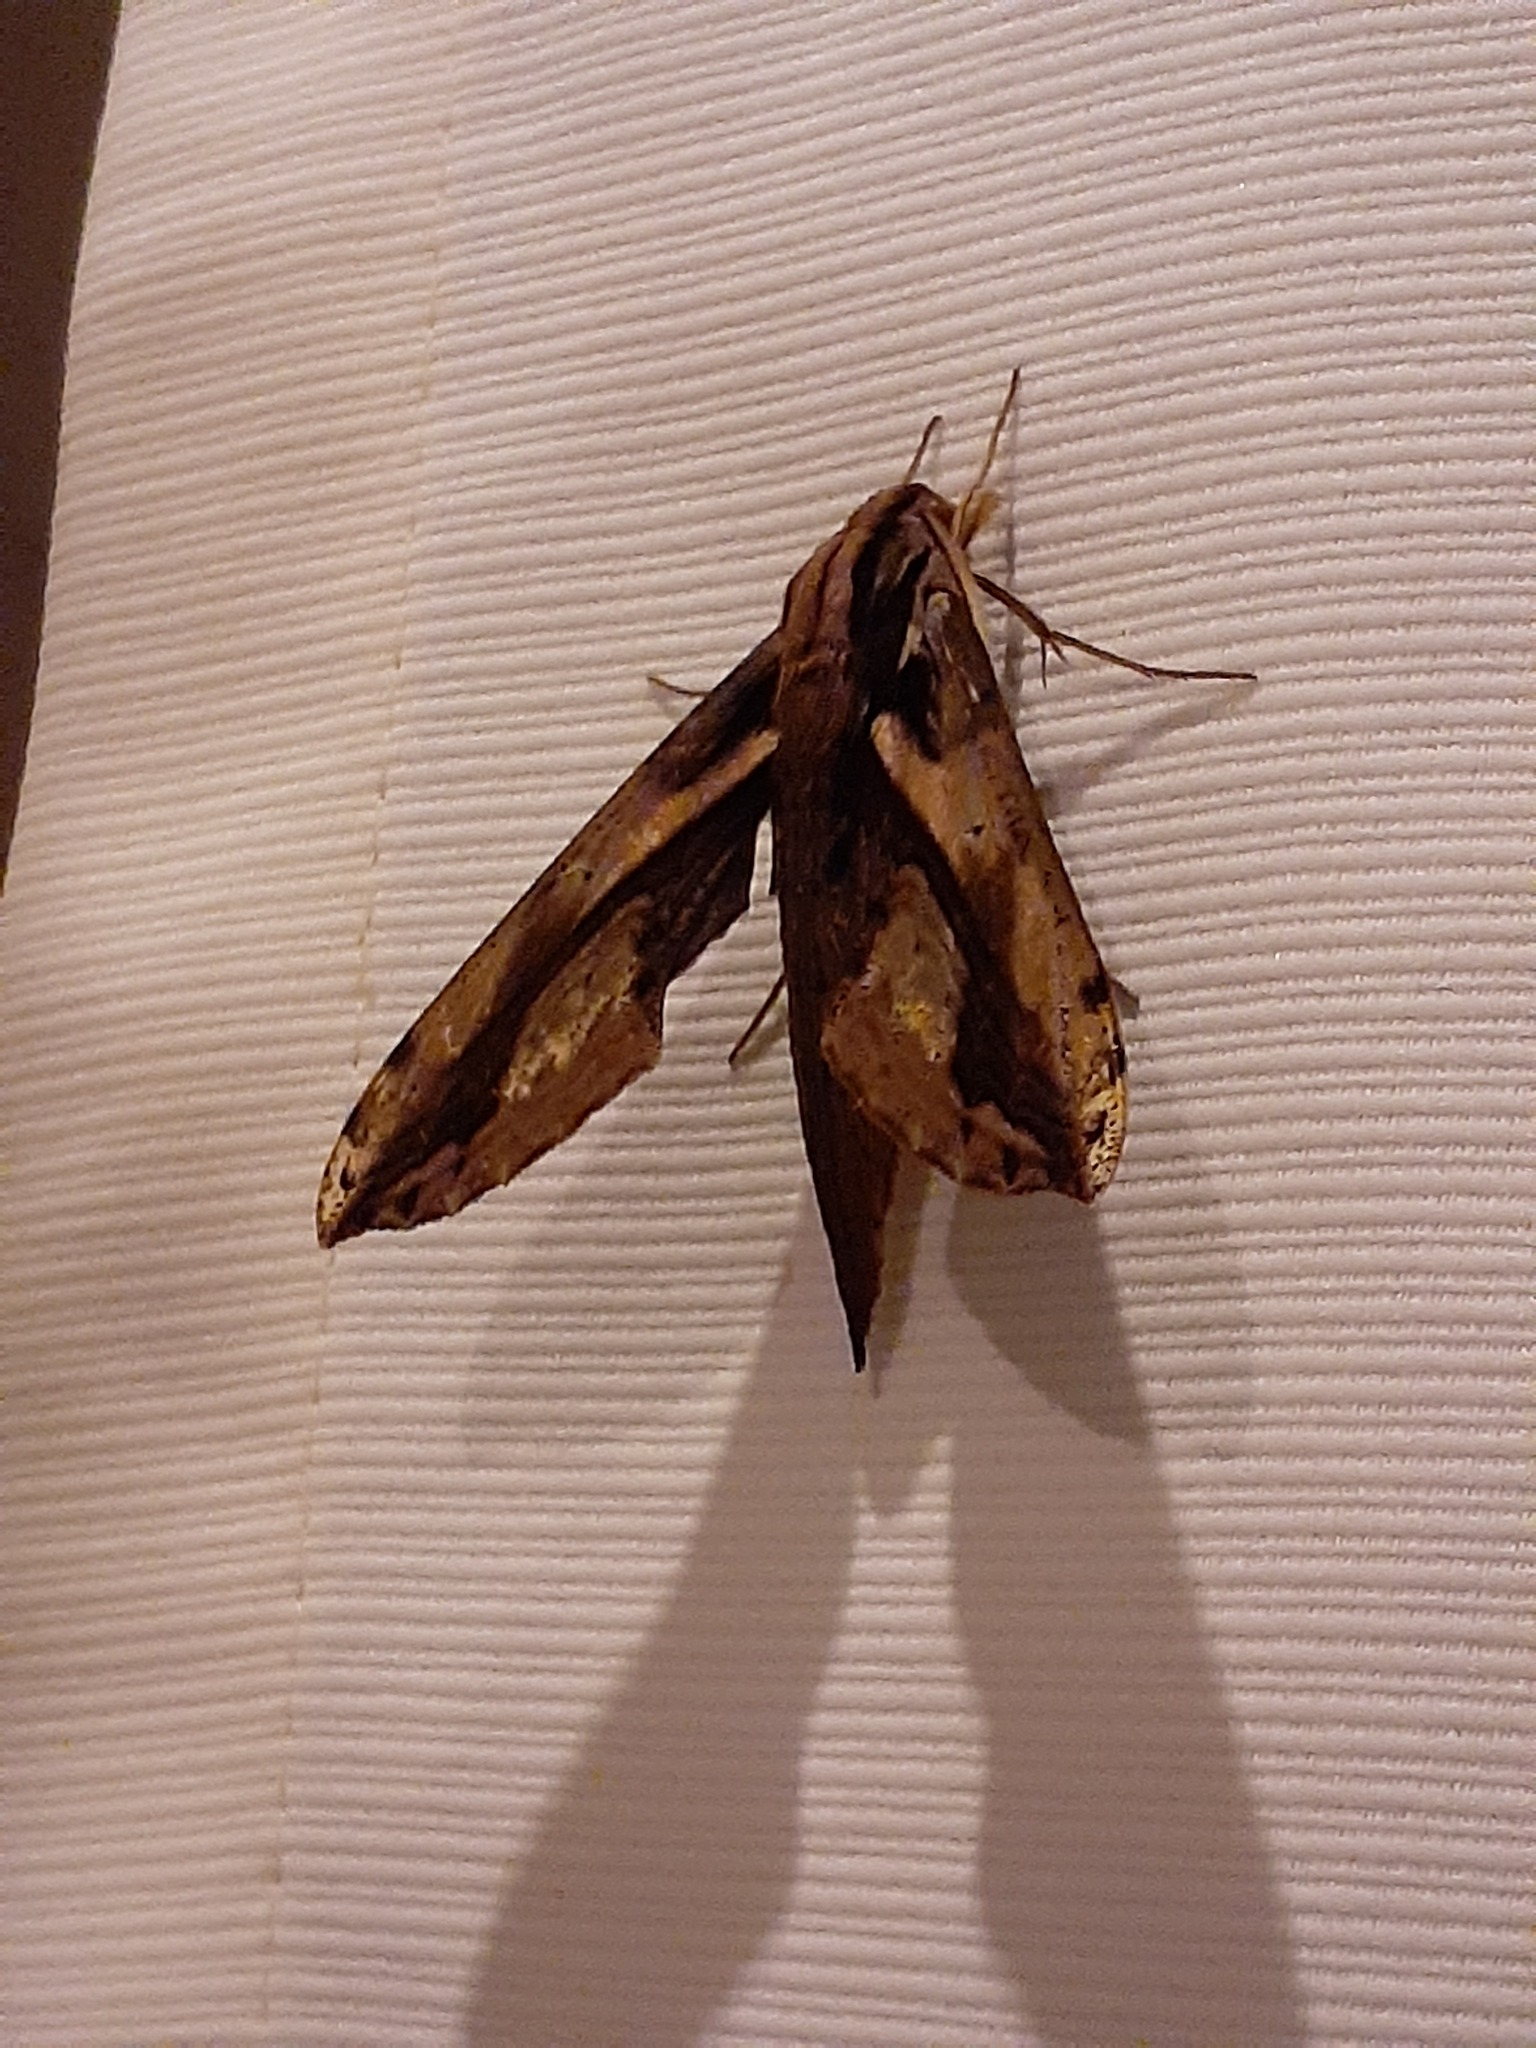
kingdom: Animalia
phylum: Arthropoda
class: Insecta
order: Lepidoptera
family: Sphingidae
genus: Xylophanes
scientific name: Xylophanes ceratomioides
